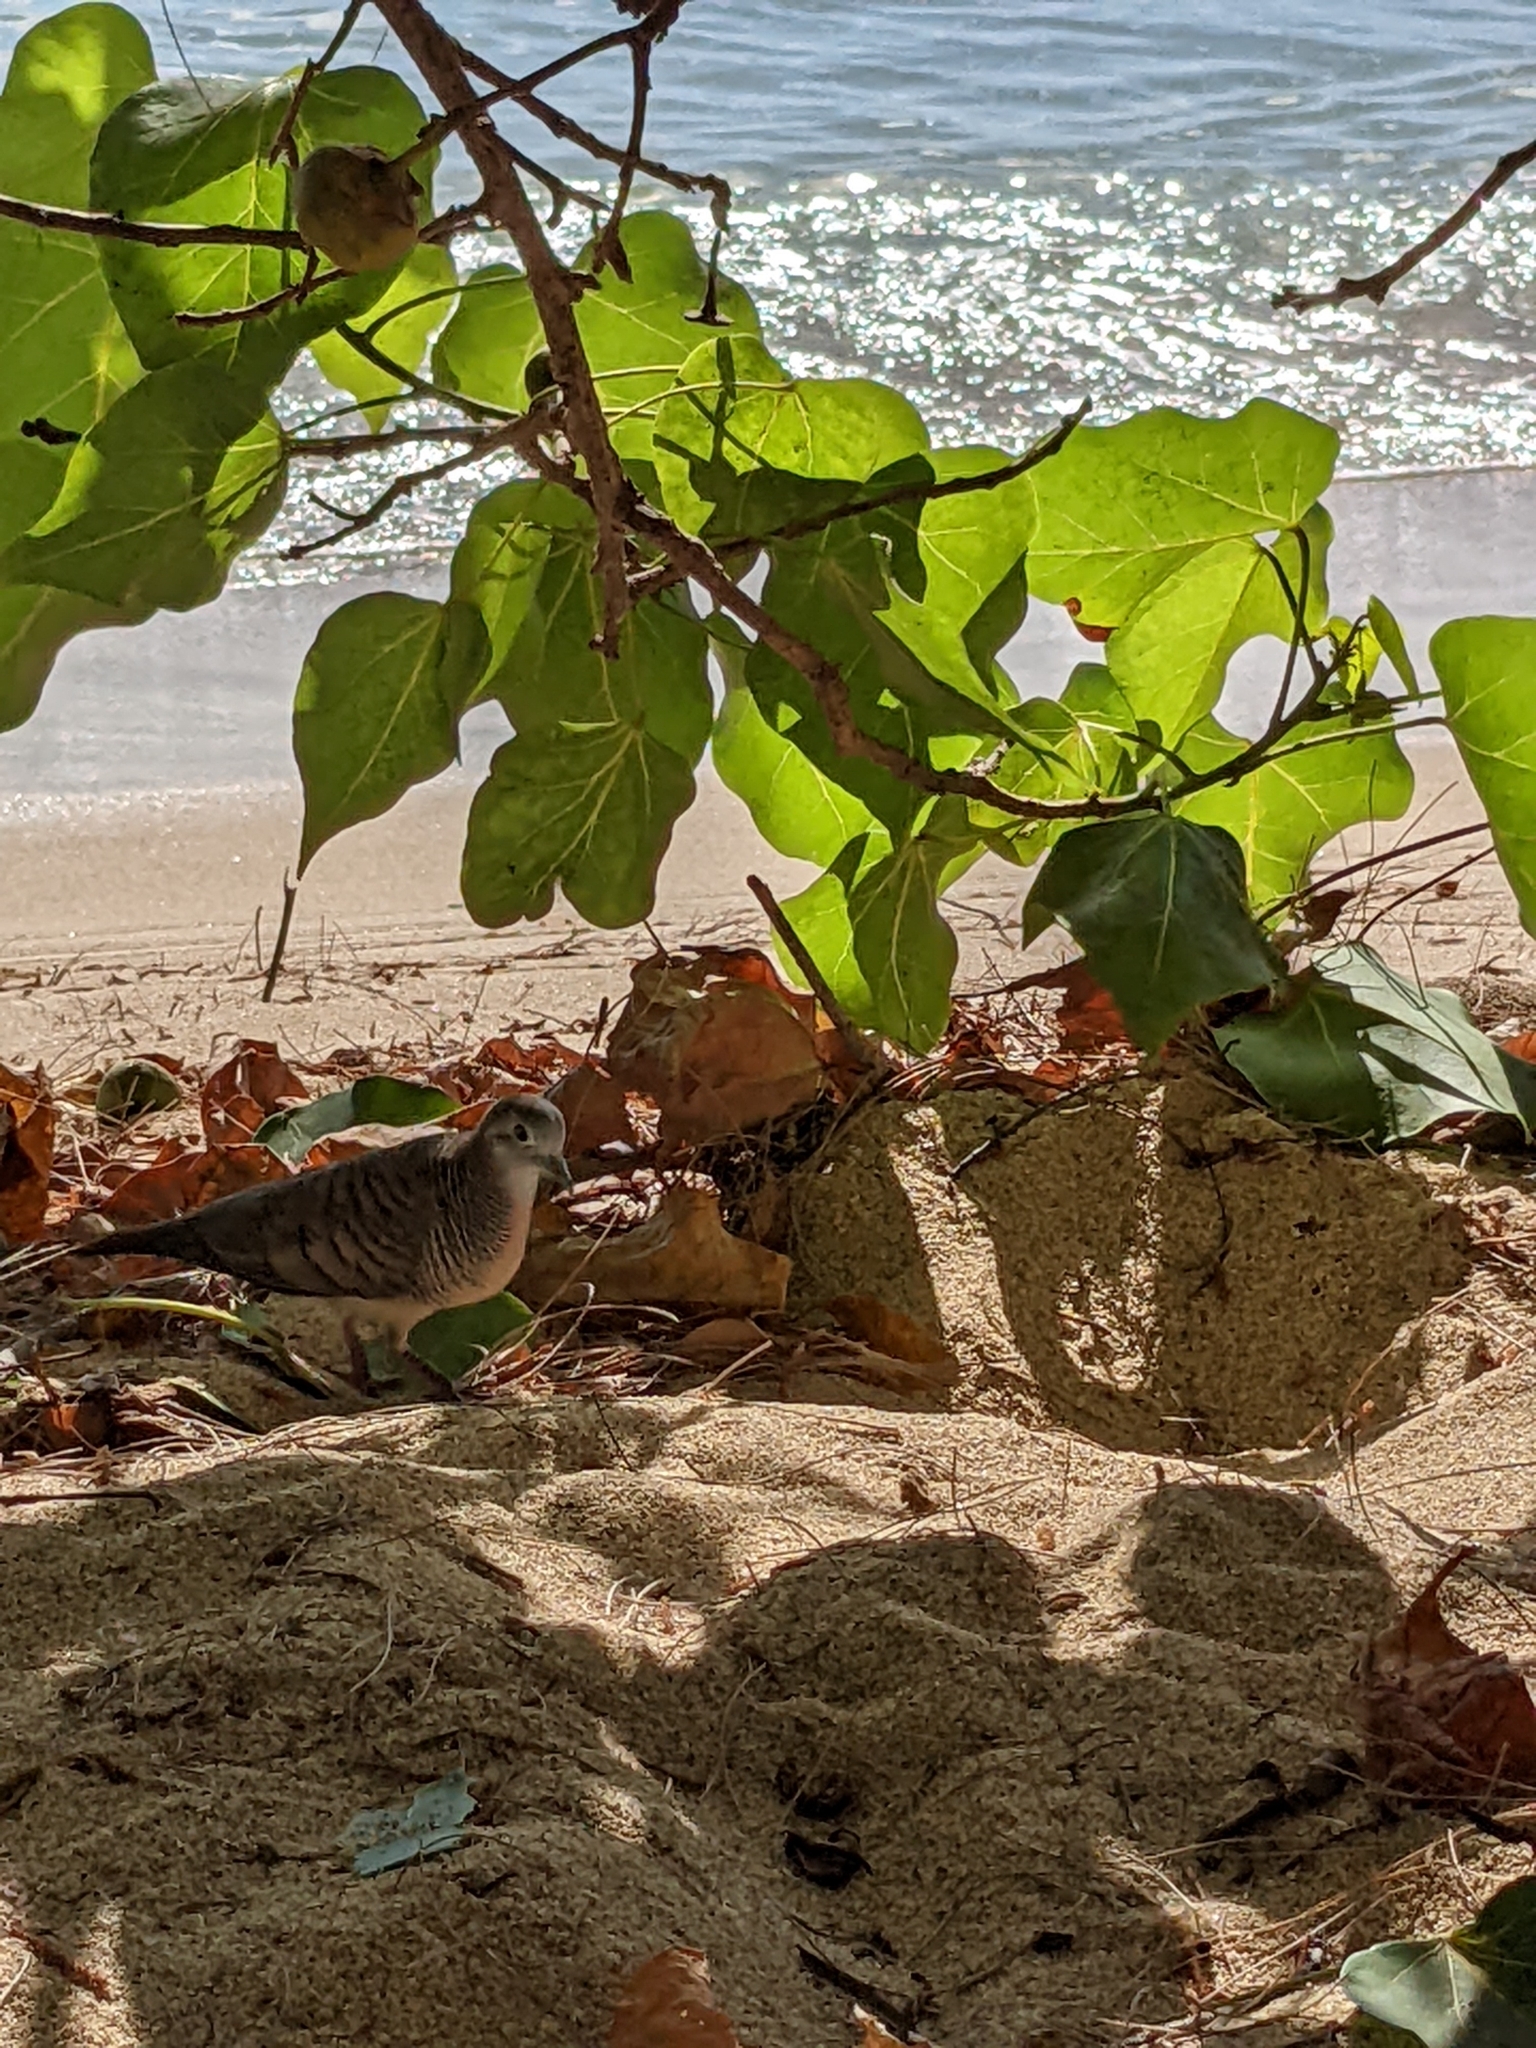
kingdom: Animalia
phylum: Chordata
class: Aves
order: Columbiformes
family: Columbidae
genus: Geopelia
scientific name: Geopelia striata
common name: Zebra dove
